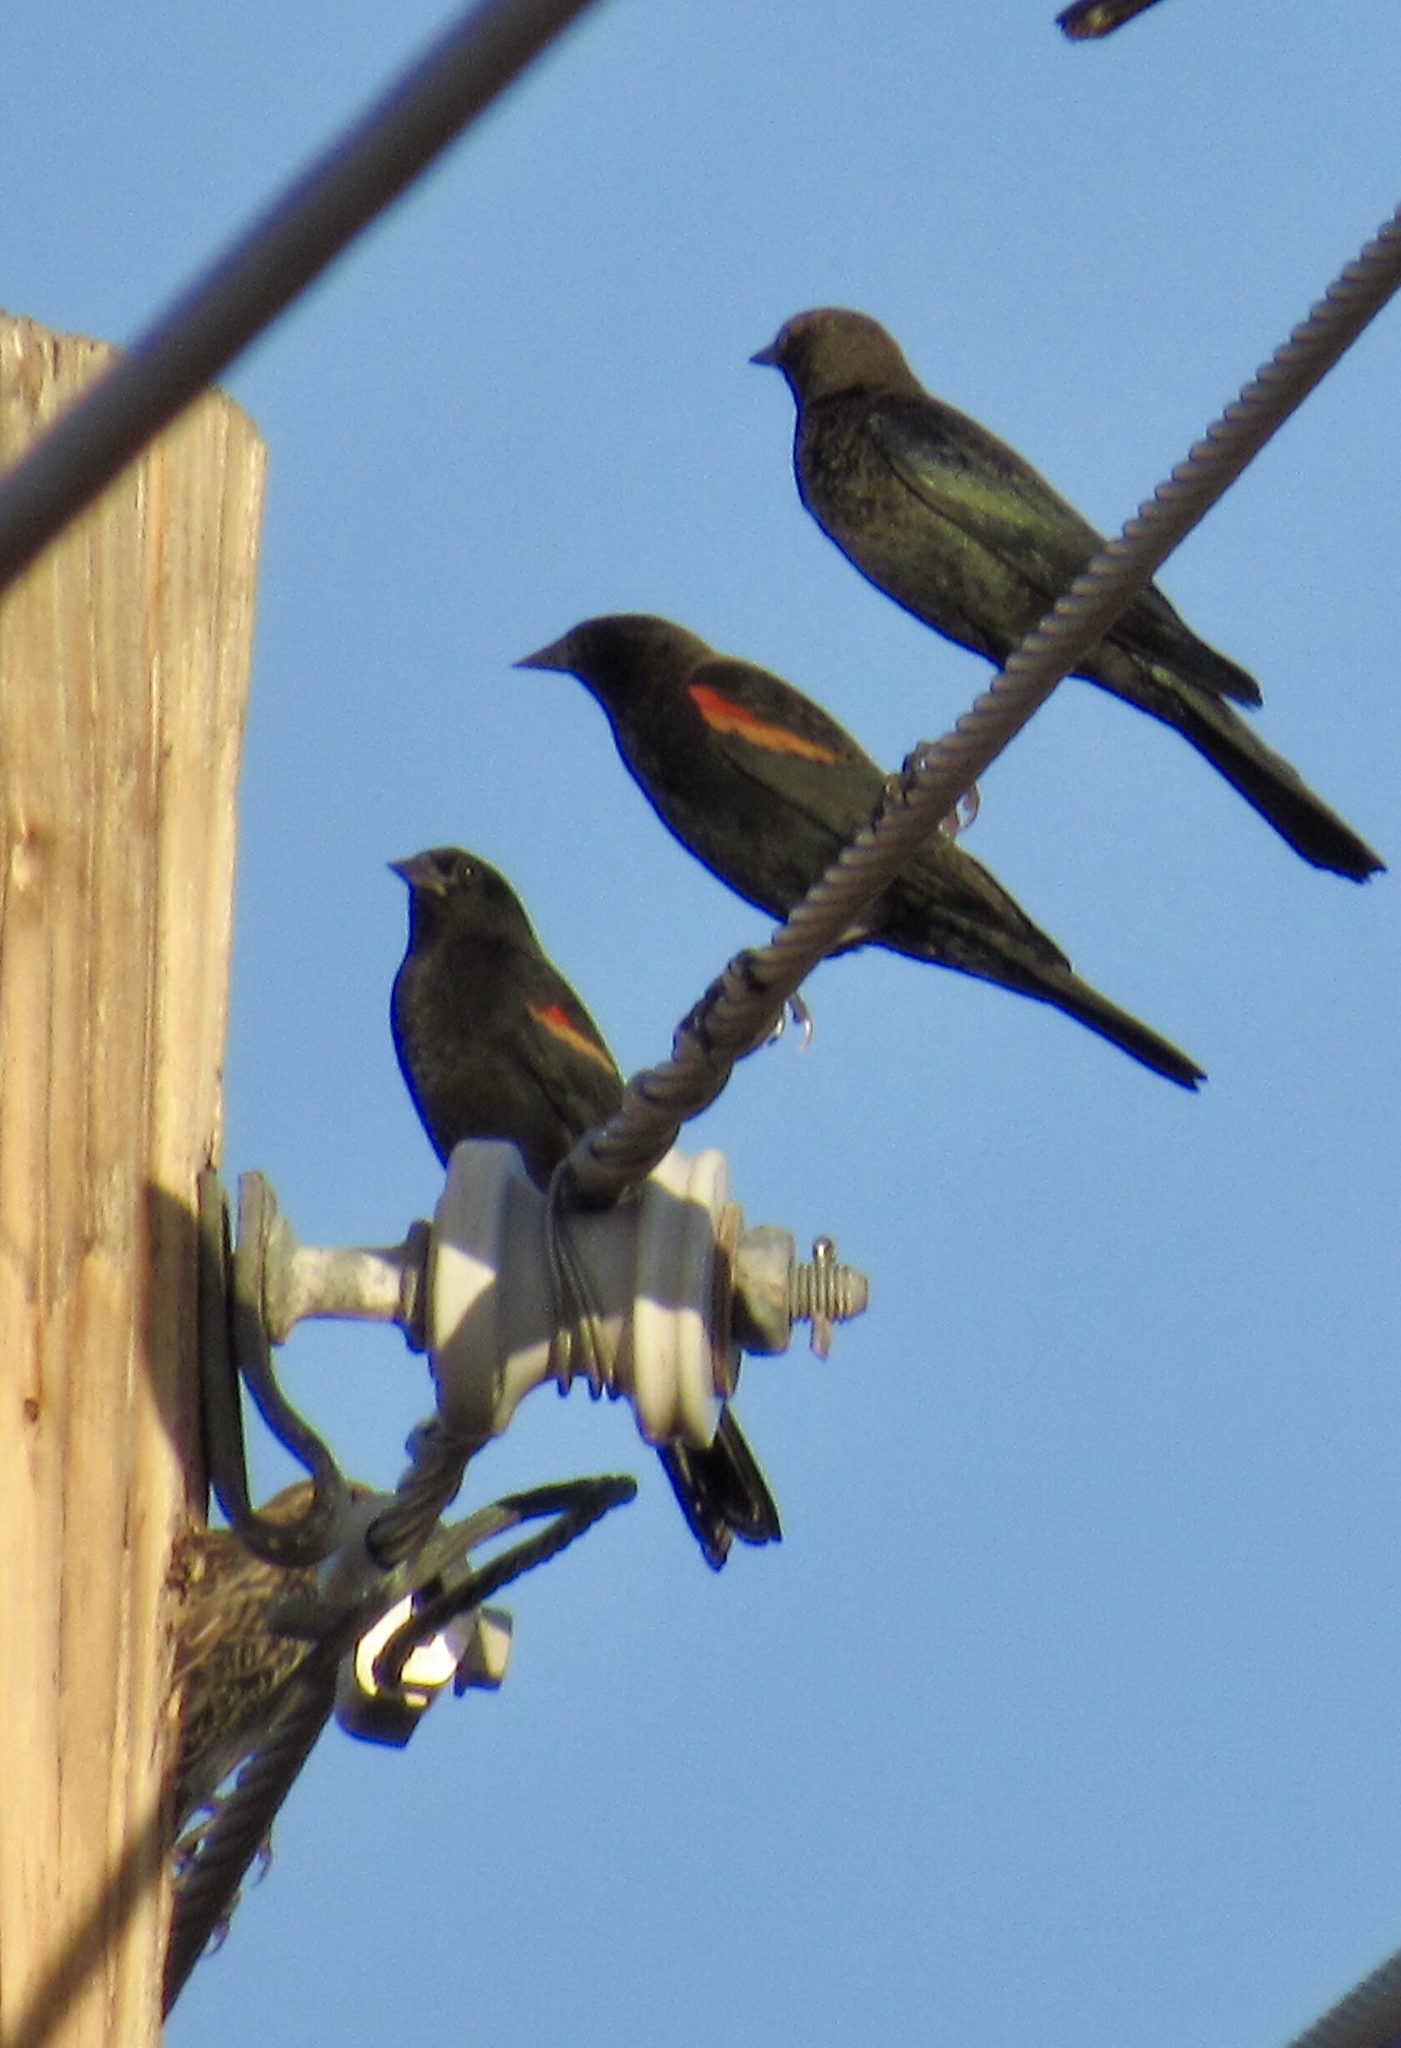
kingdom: Animalia
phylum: Chordata
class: Aves
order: Passeriformes
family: Icteridae
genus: Agelaius
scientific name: Agelaius phoeniceus
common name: Red-winged blackbird
